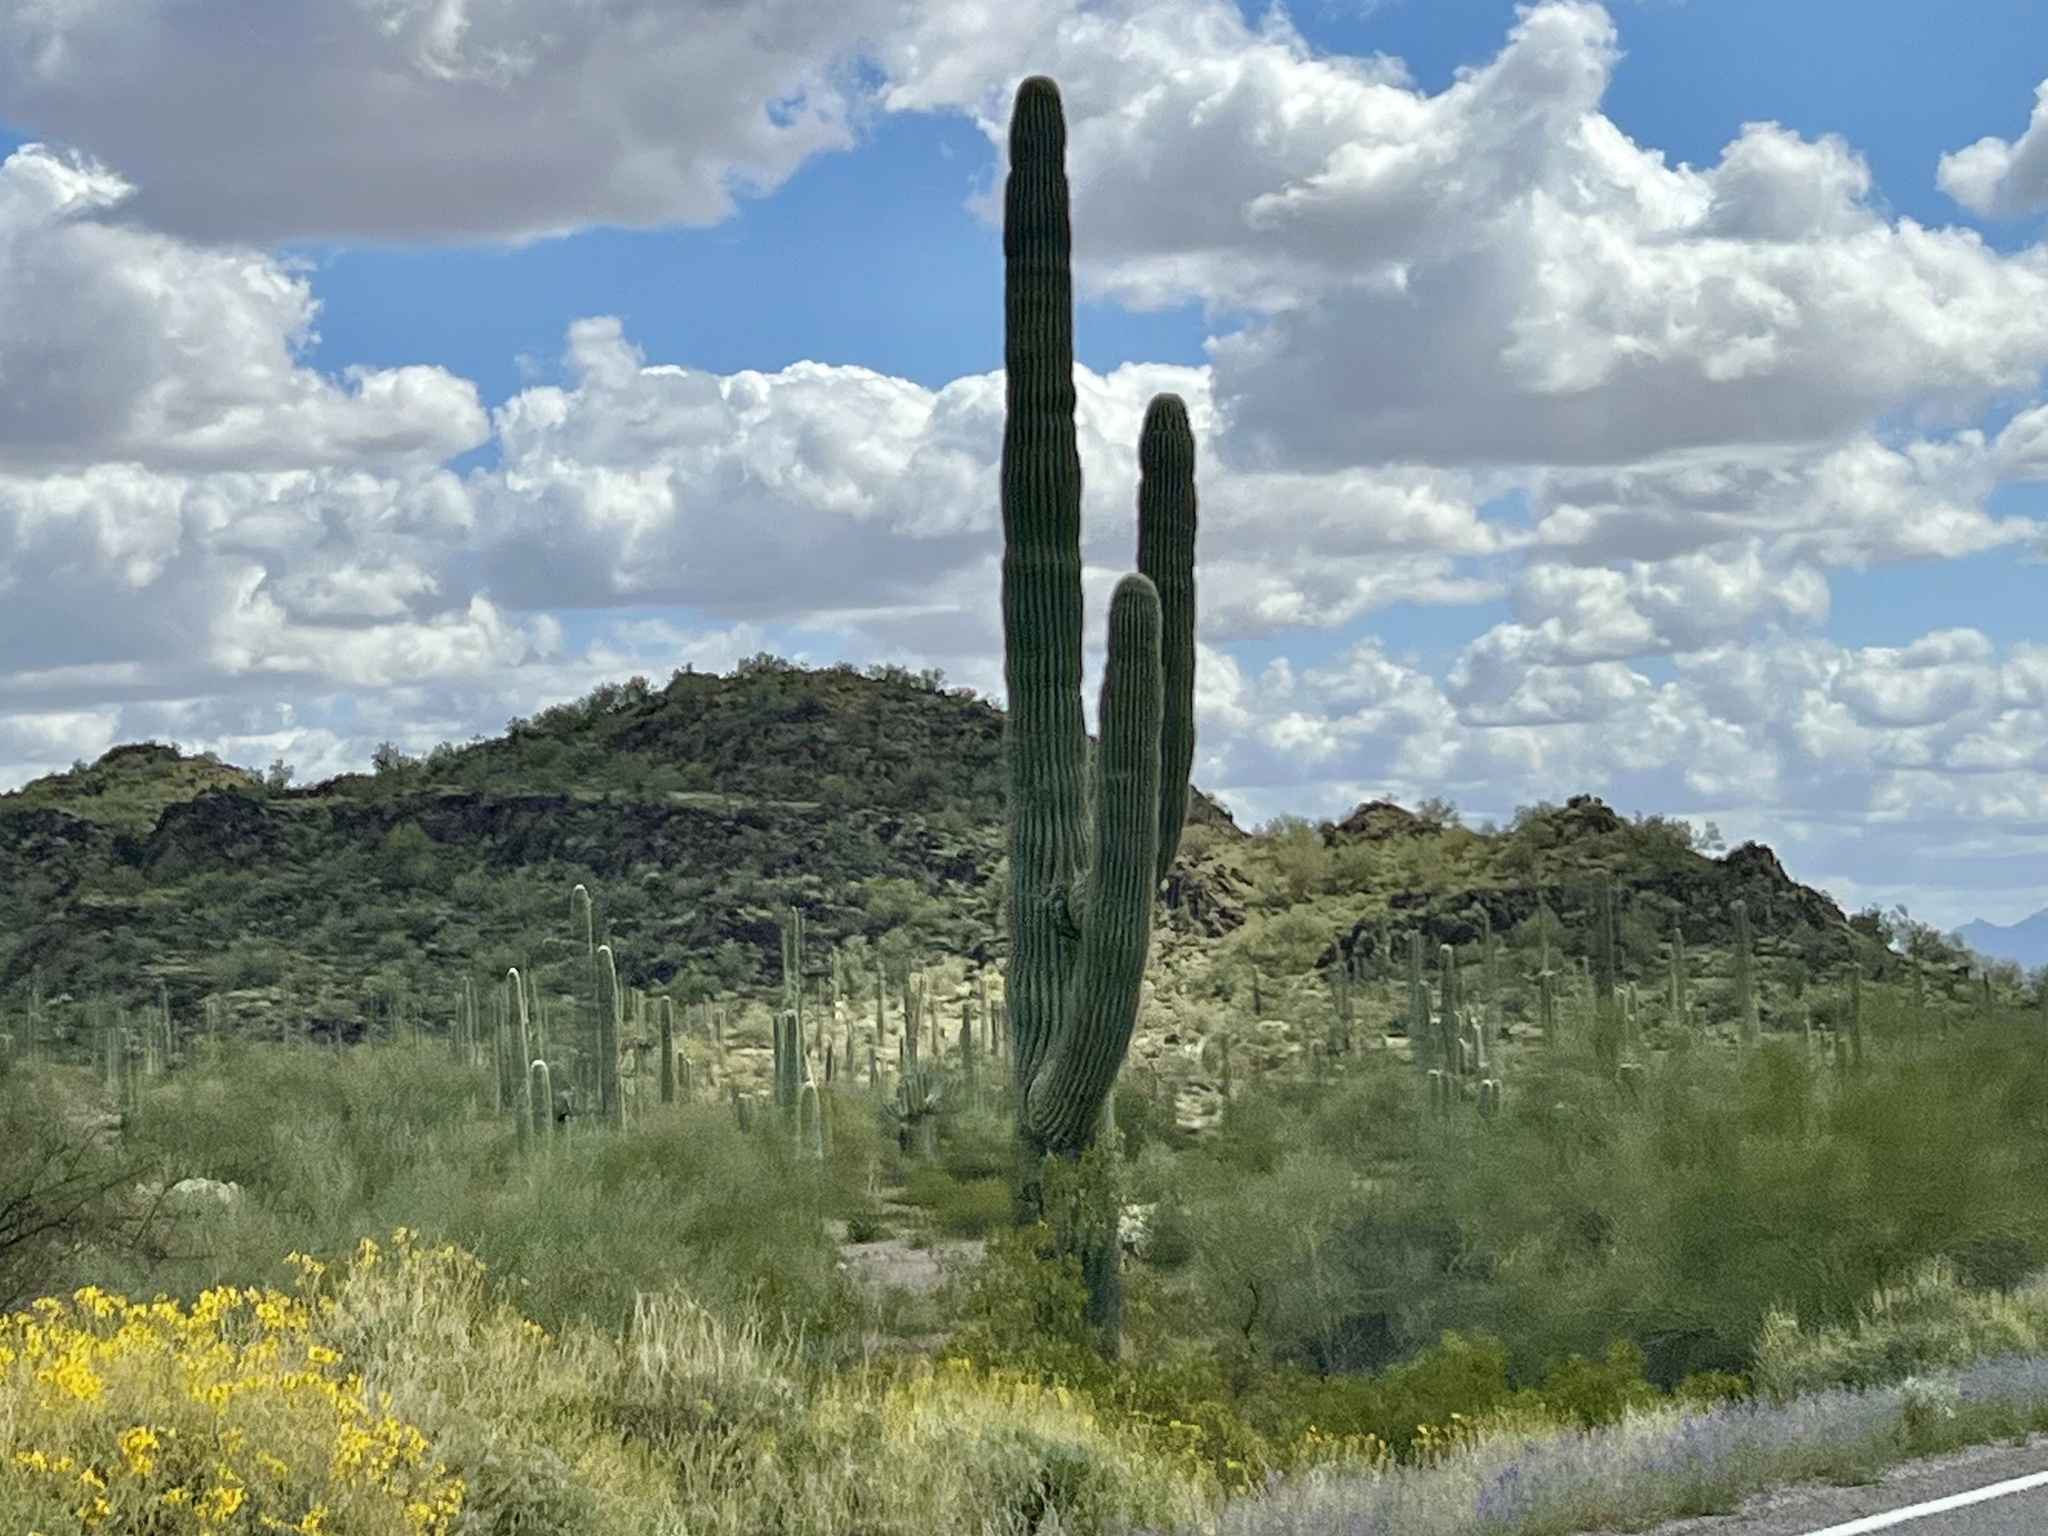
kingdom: Plantae
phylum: Tracheophyta
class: Magnoliopsida
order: Caryophyllales
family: Cactaceae
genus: Carnegiea
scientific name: Carnegiea gigantea
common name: Saguaro
